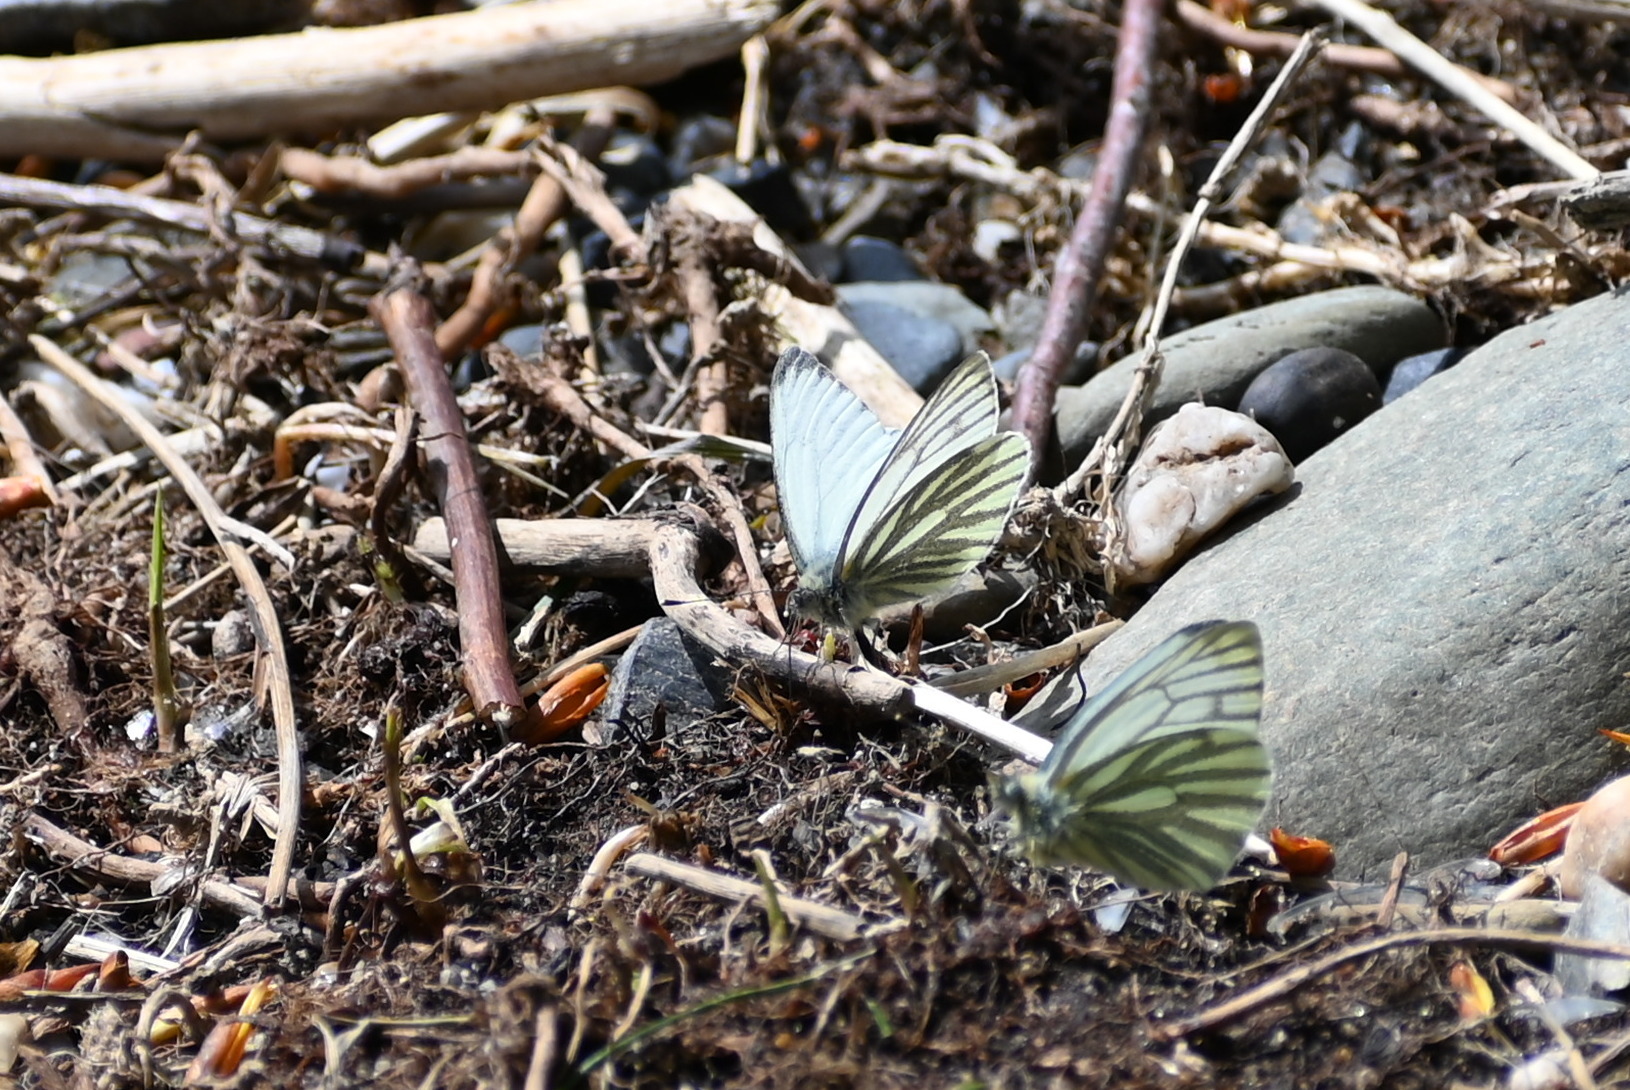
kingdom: Animalia
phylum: Arthropoda
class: Insecta
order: Lepidoptera
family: Pieridae
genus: Pieris
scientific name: Pieris napi
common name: Green-veined white
